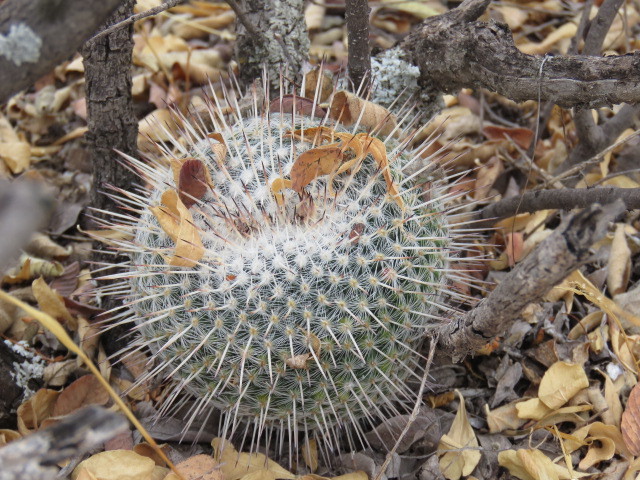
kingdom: Plantae
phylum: Tracheophyta
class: Magnoliopsida
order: Caryophyllales
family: Cactaceae
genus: Mammillaria
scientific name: Mammillaria parkinsonii
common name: Owl's-eye
